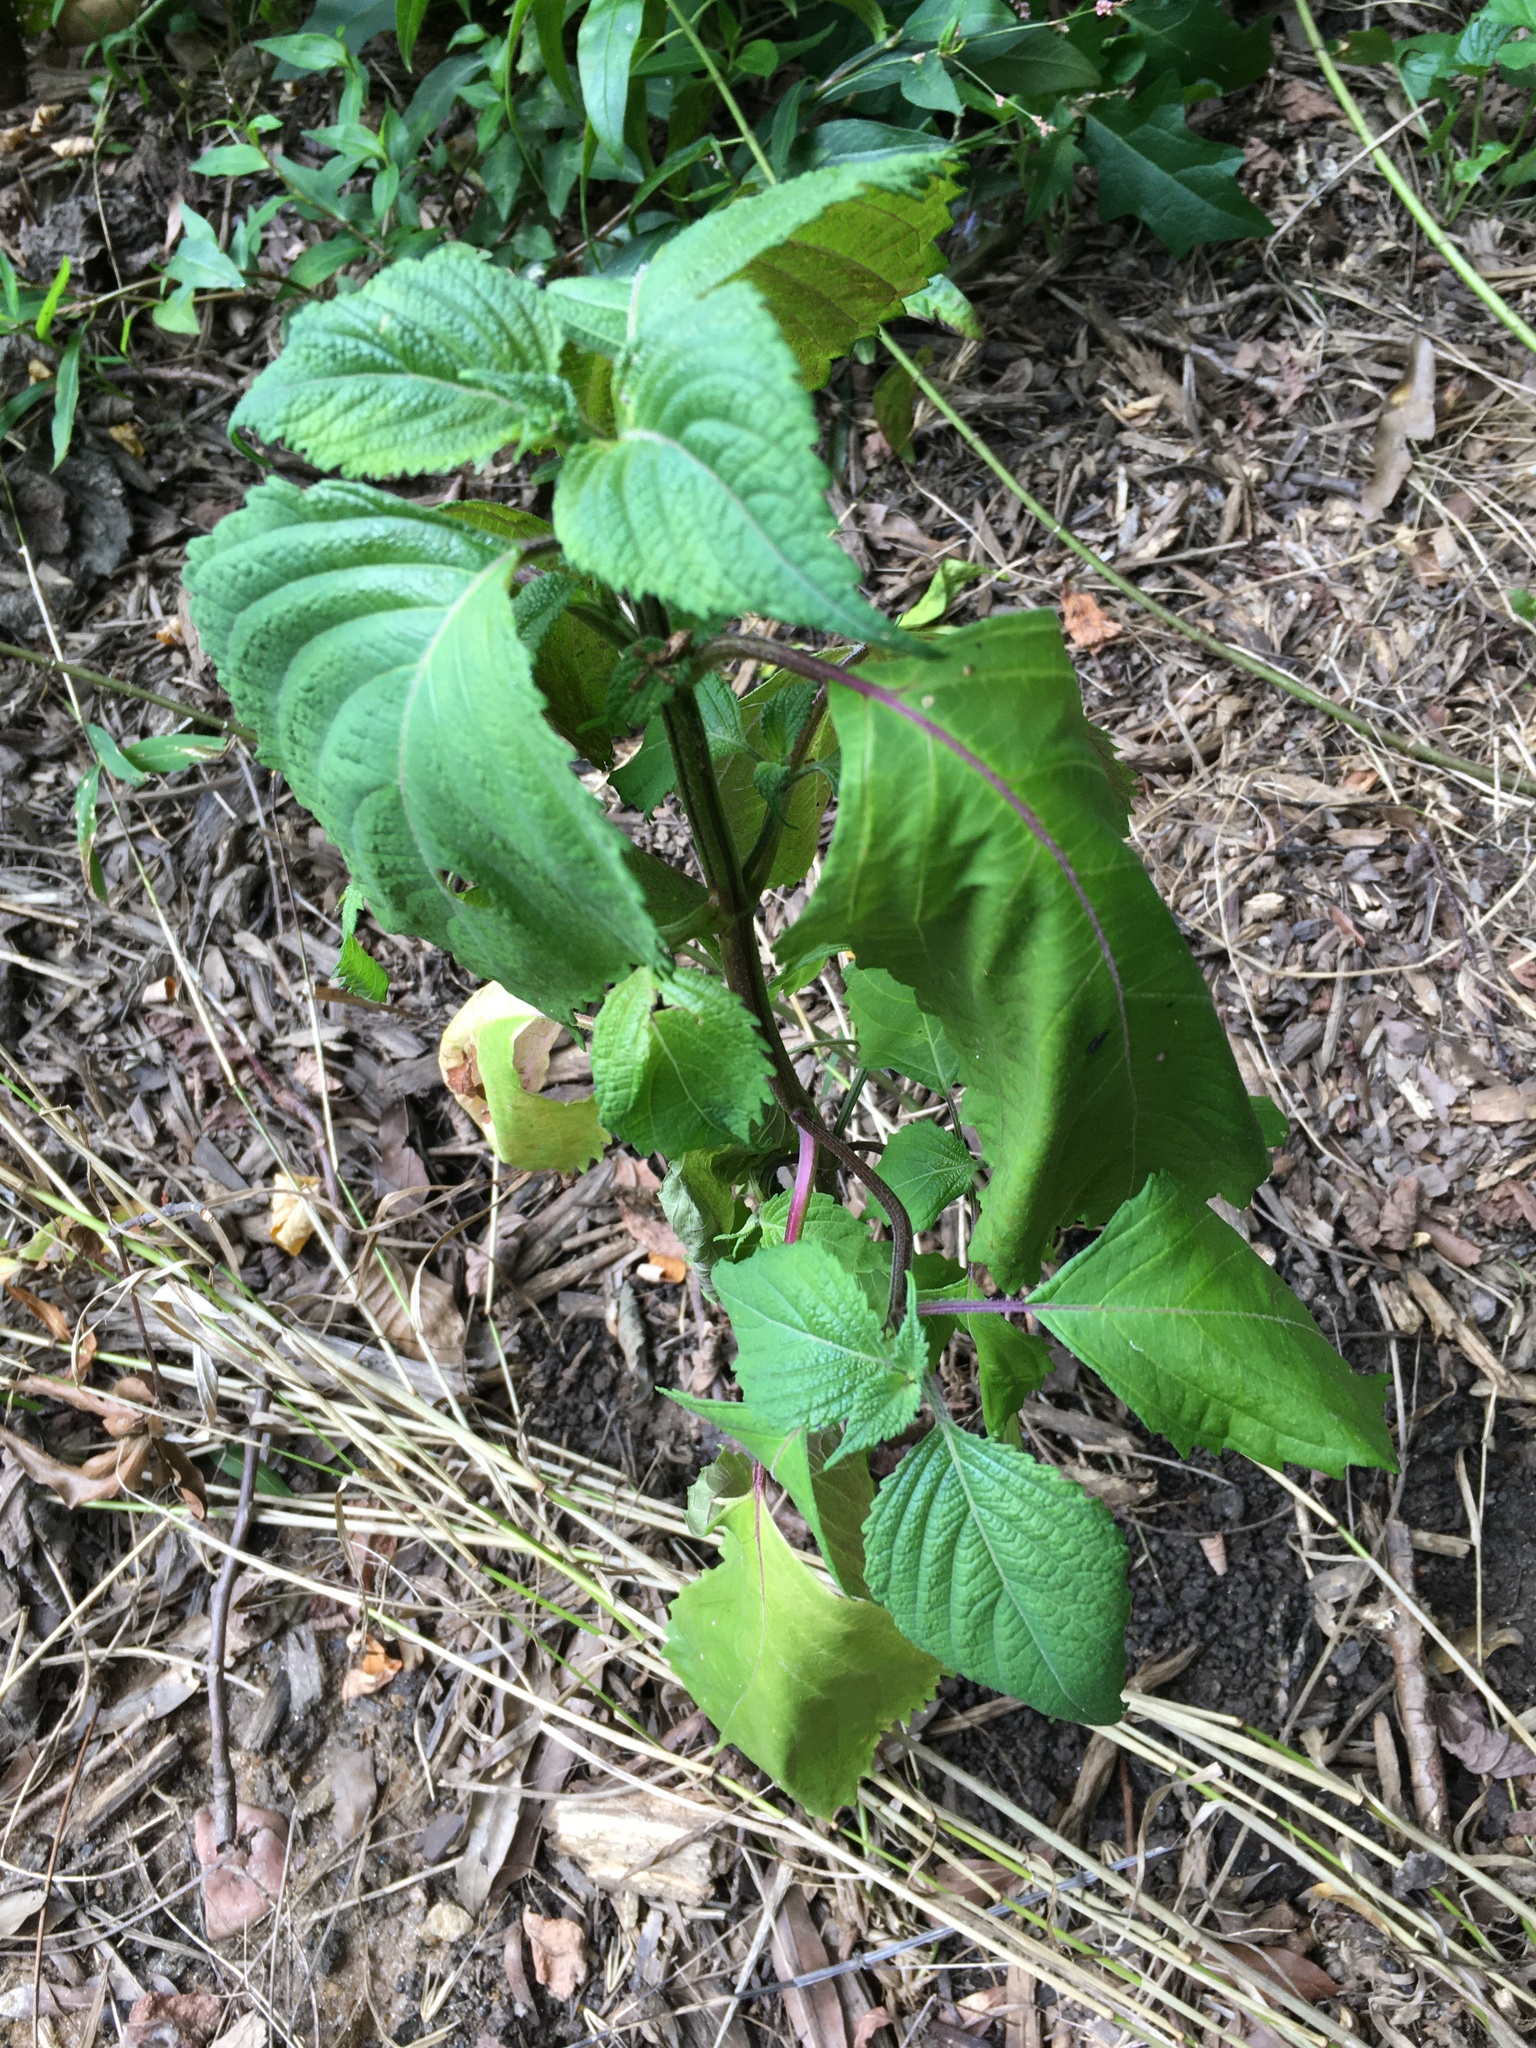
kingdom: Plantae
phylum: Tracheophyta
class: Magnoliopsida
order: Lamiales
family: Lamiaceae
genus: Perilla
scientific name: Perilla frutescens
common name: Perilla
